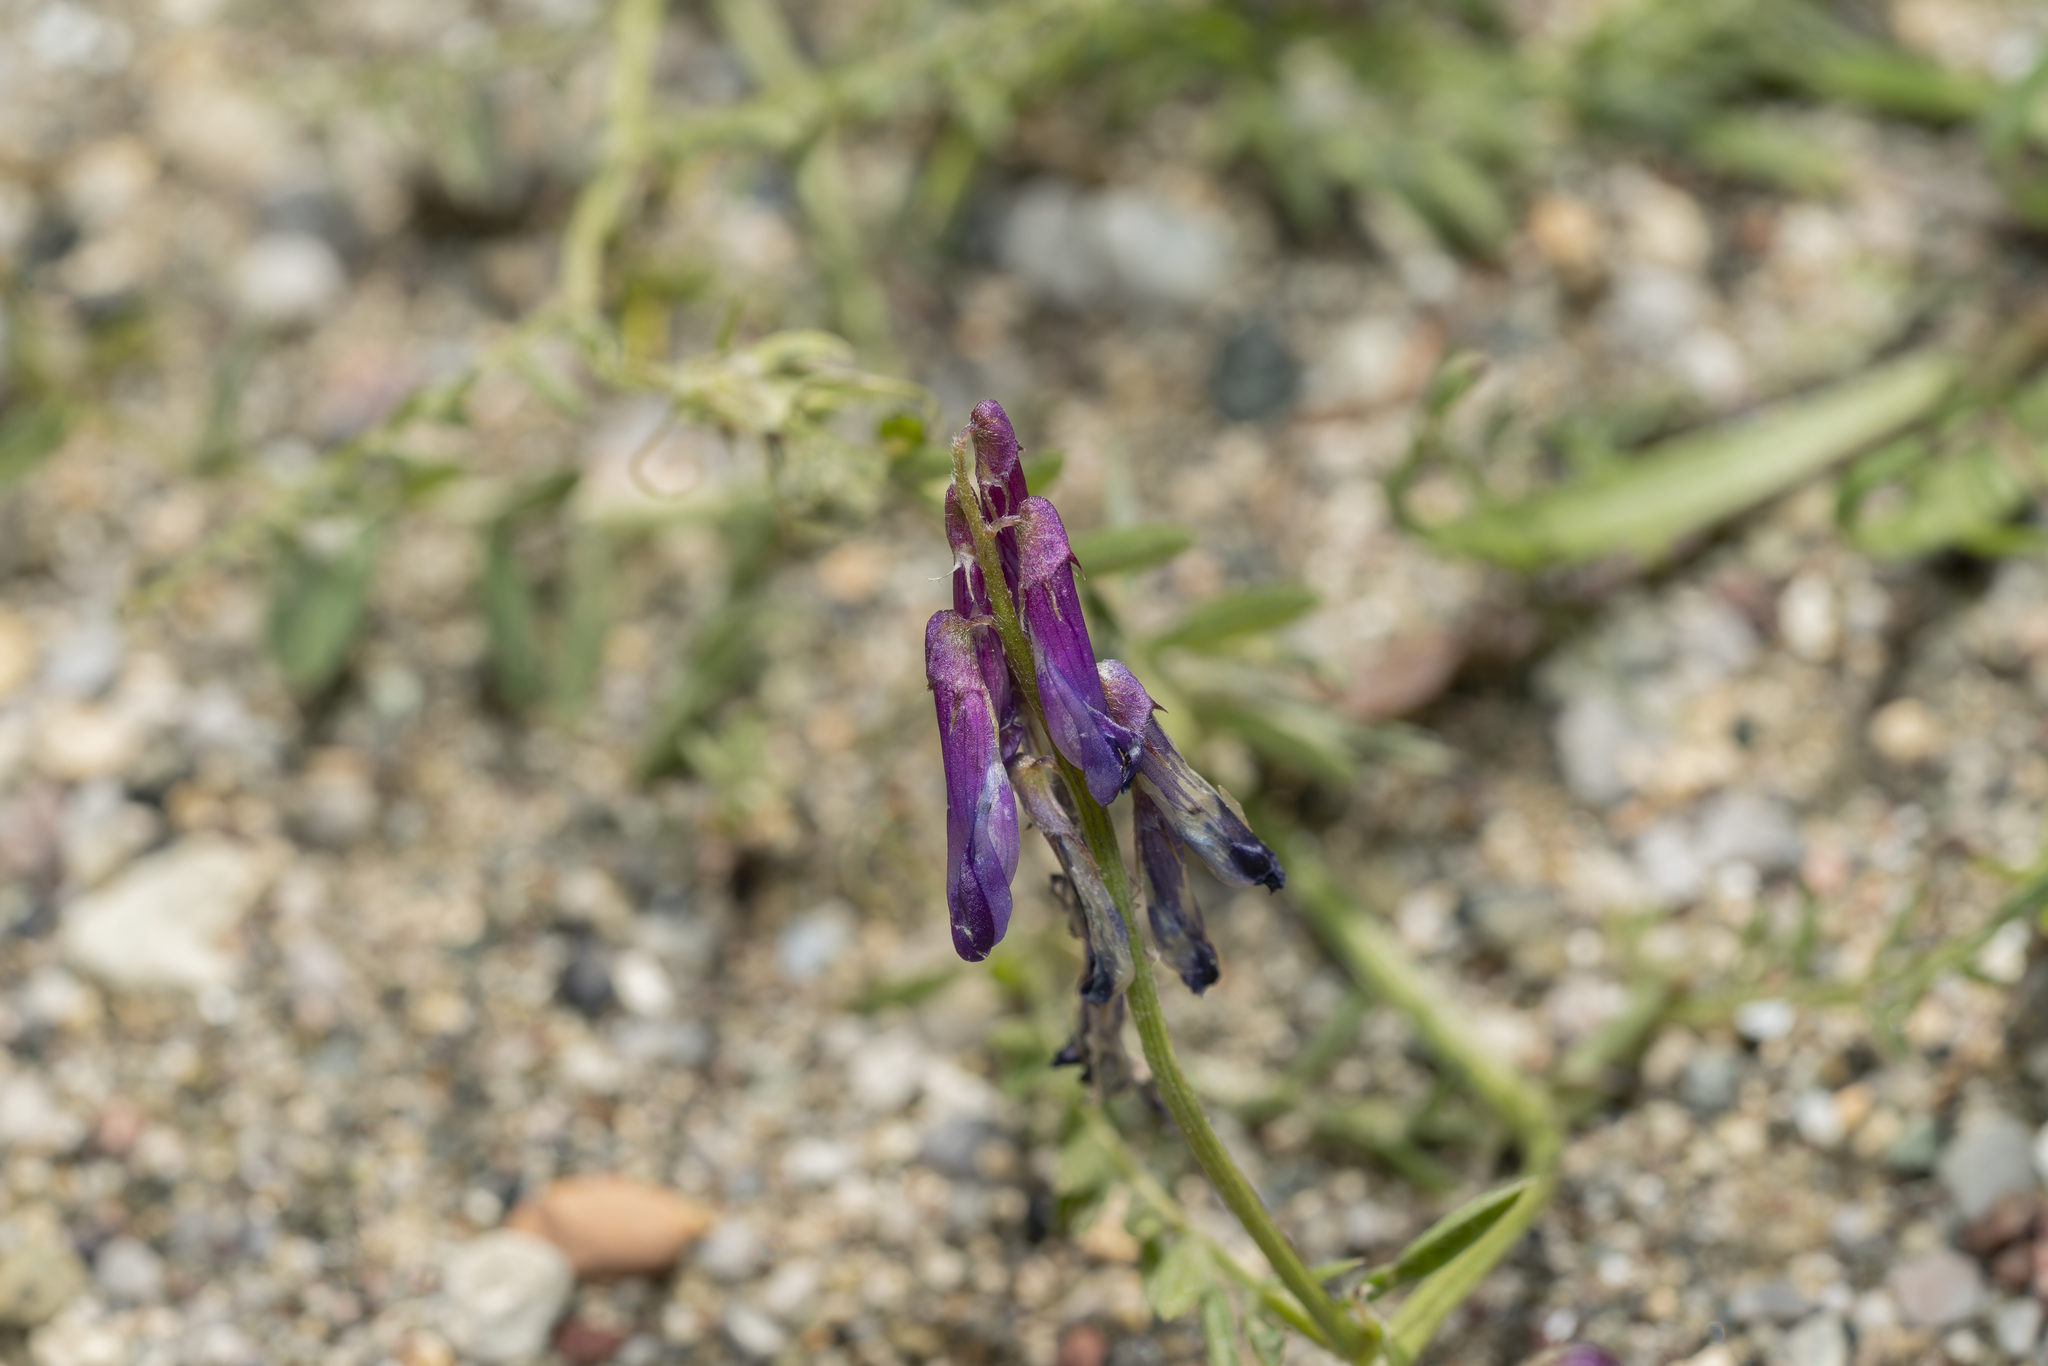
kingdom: Plantae
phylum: Tracheophyta
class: Magnoliopsida
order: Fabales
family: Fabaceae
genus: Vicia
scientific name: Vicia eriocarpa
